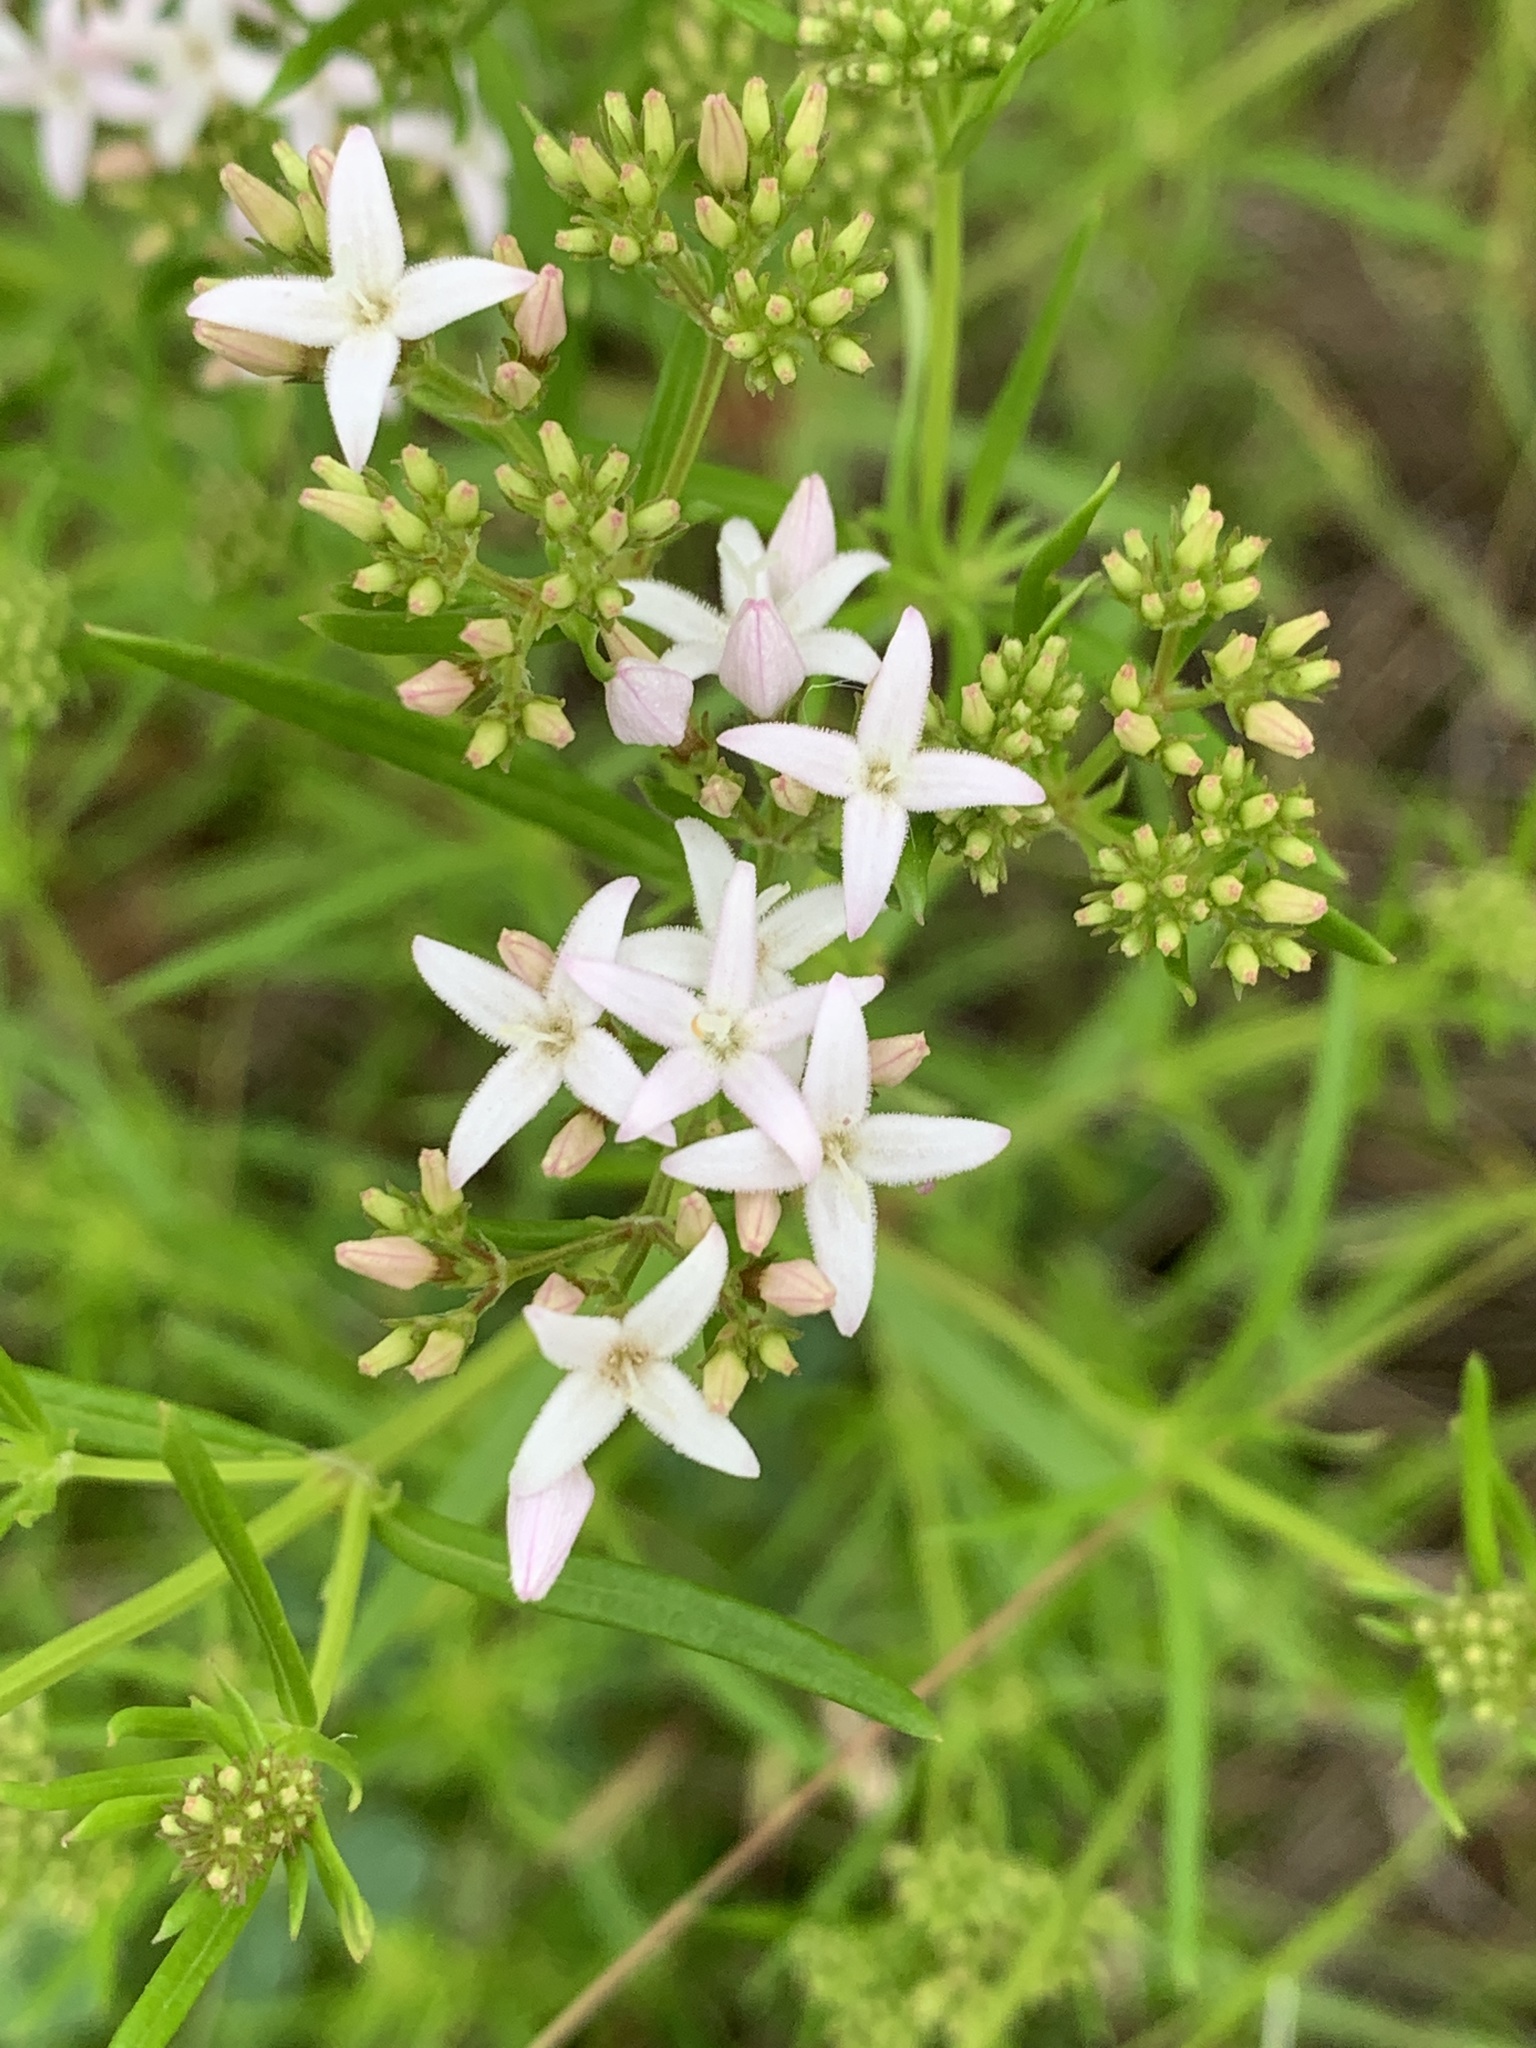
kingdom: Plantae
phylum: Tracheophyta
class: Magnoliopsida
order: Gentianales
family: Rubiaceae
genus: Stenaria
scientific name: Stenaria nigricans
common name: Diamondflowers
